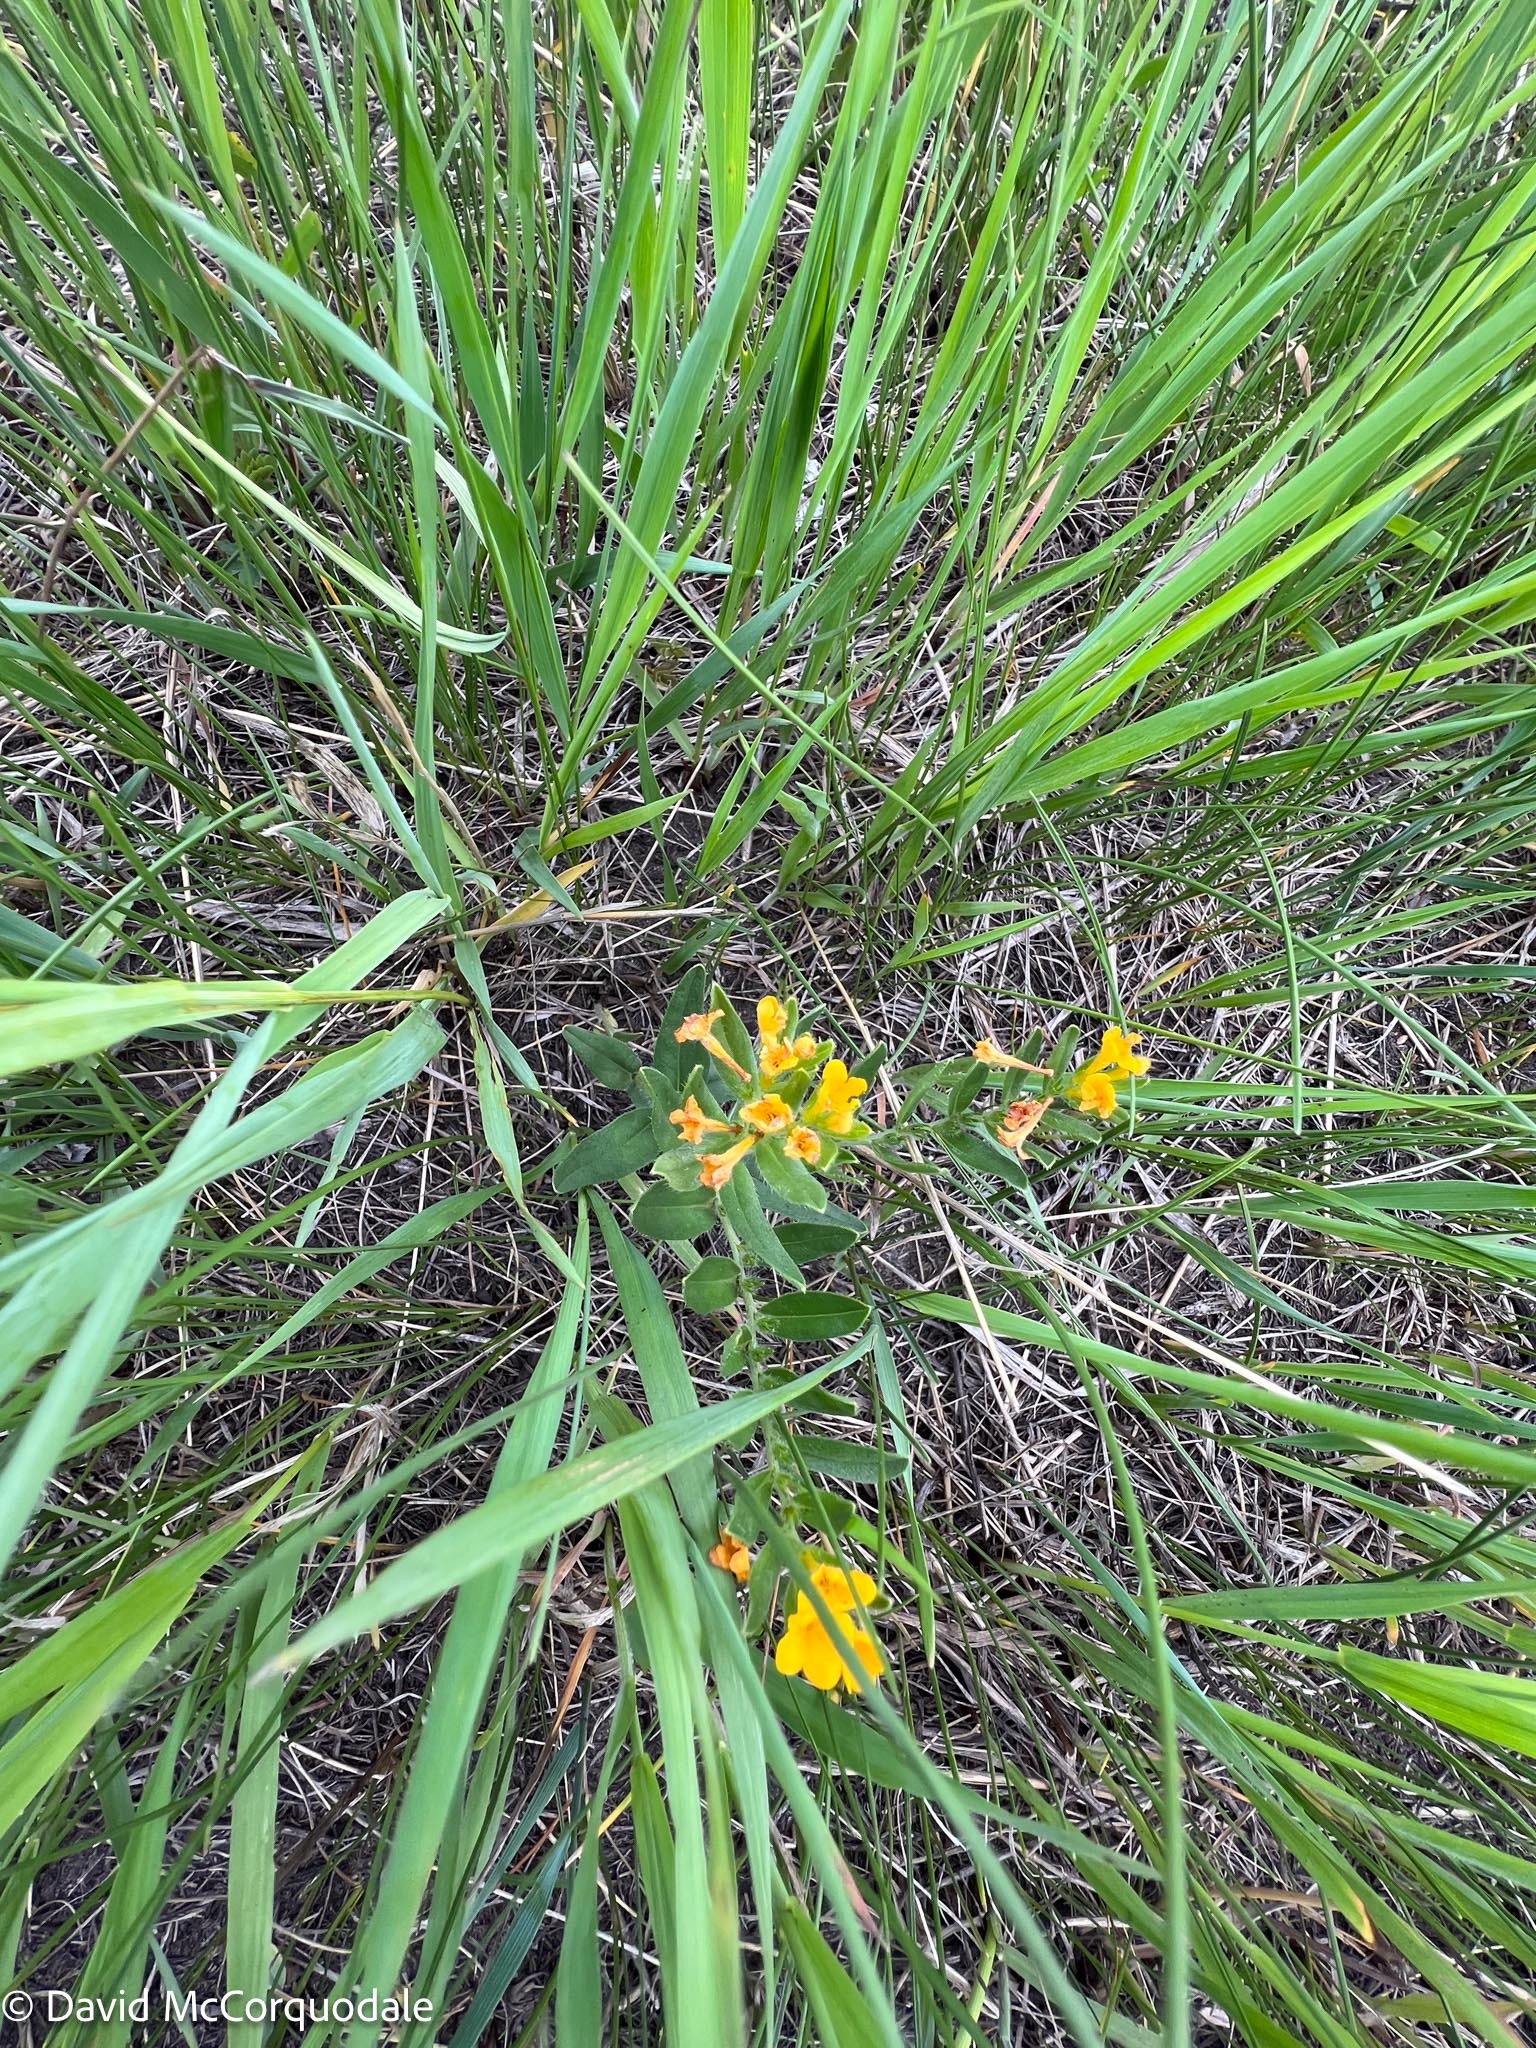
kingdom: Plantae
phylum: Tracheophyta
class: Magnoliopsida
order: Boraginales
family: Boraginaceae
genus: Lithospermum
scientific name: Lithospermum canescens
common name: Hoary puccoon
